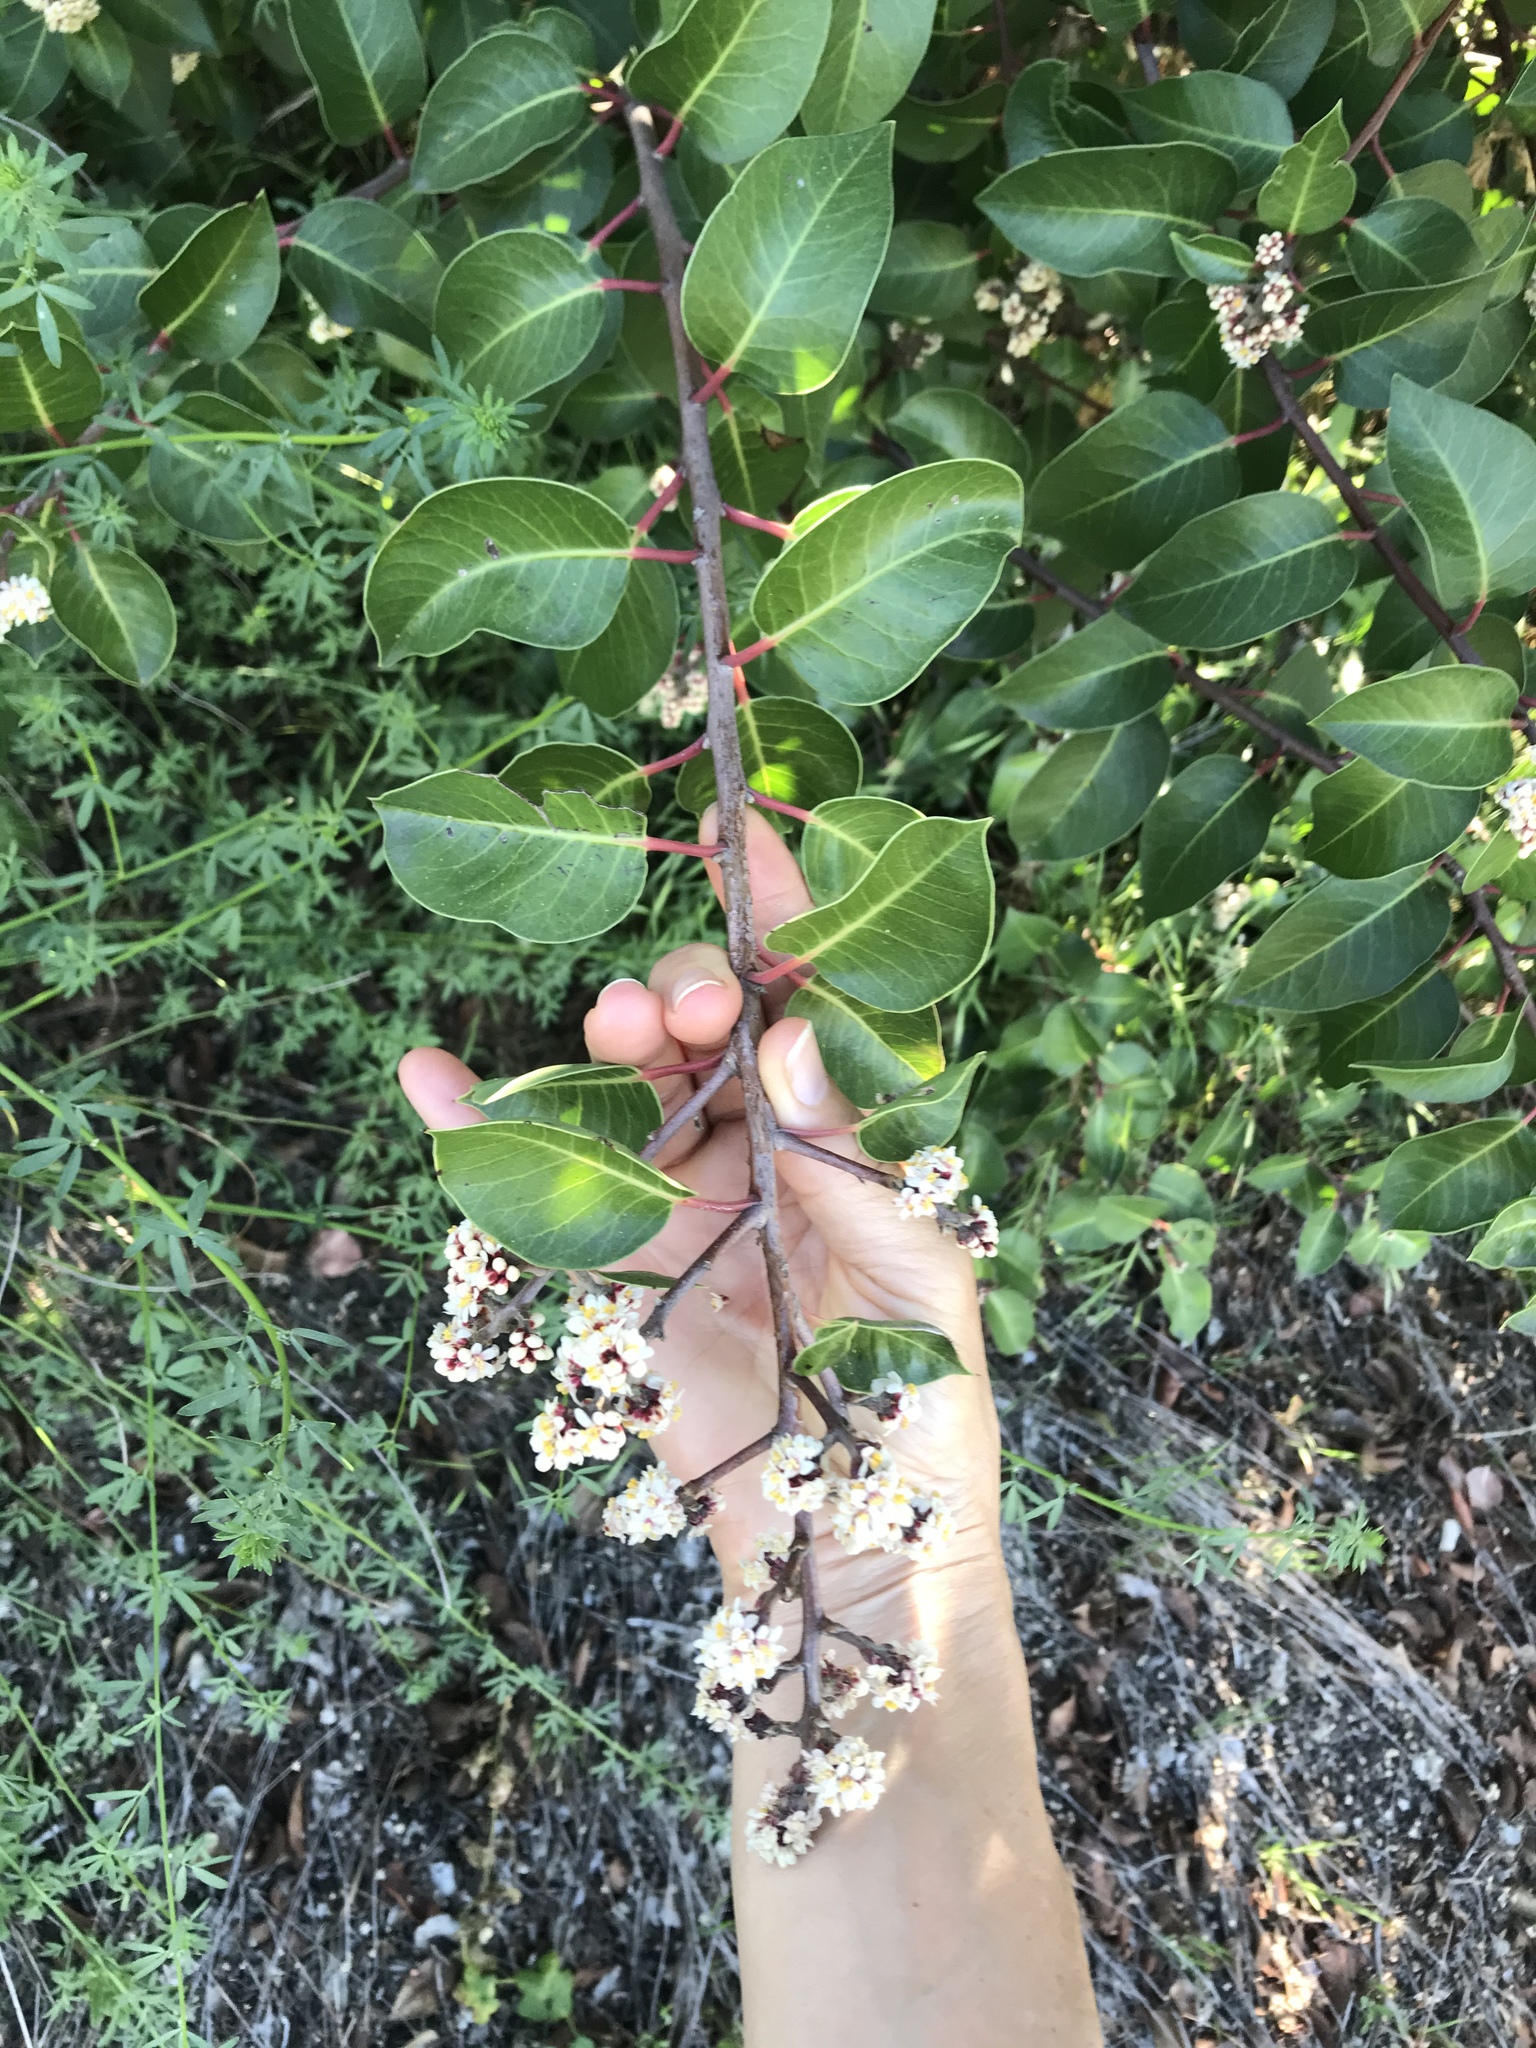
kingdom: Plantae
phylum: Tracheophyta
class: Magnoliopsida
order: Sapindales
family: Anacardiaceae
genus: Rhus
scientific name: Rhus ovata
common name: Sugar sumac
